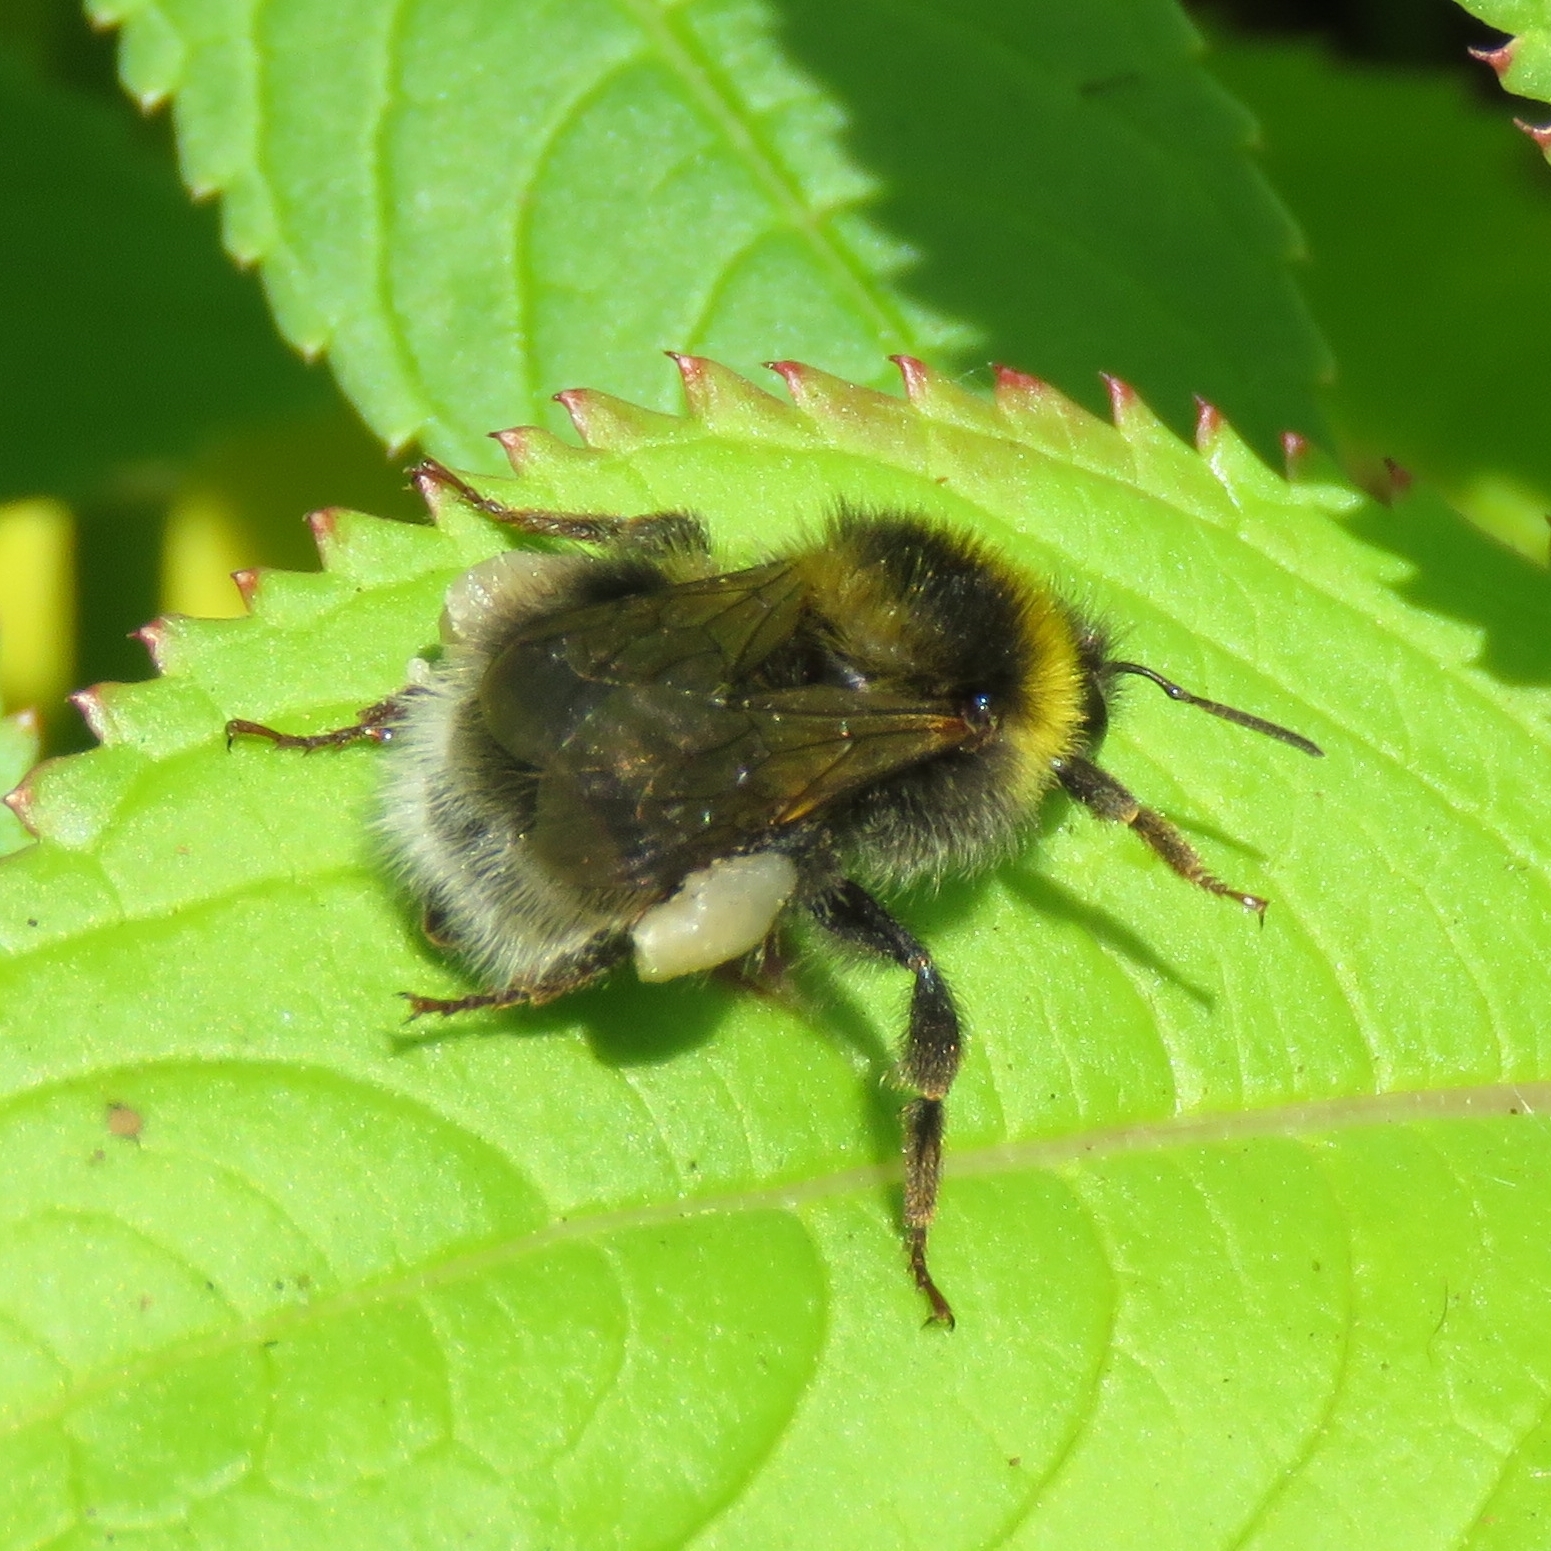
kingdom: Animalia
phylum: Arthropoda
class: Insecta
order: Hymenoptera
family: Apidae
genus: Bombus
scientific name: Bombus hortorum
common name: Garden bumblebee
